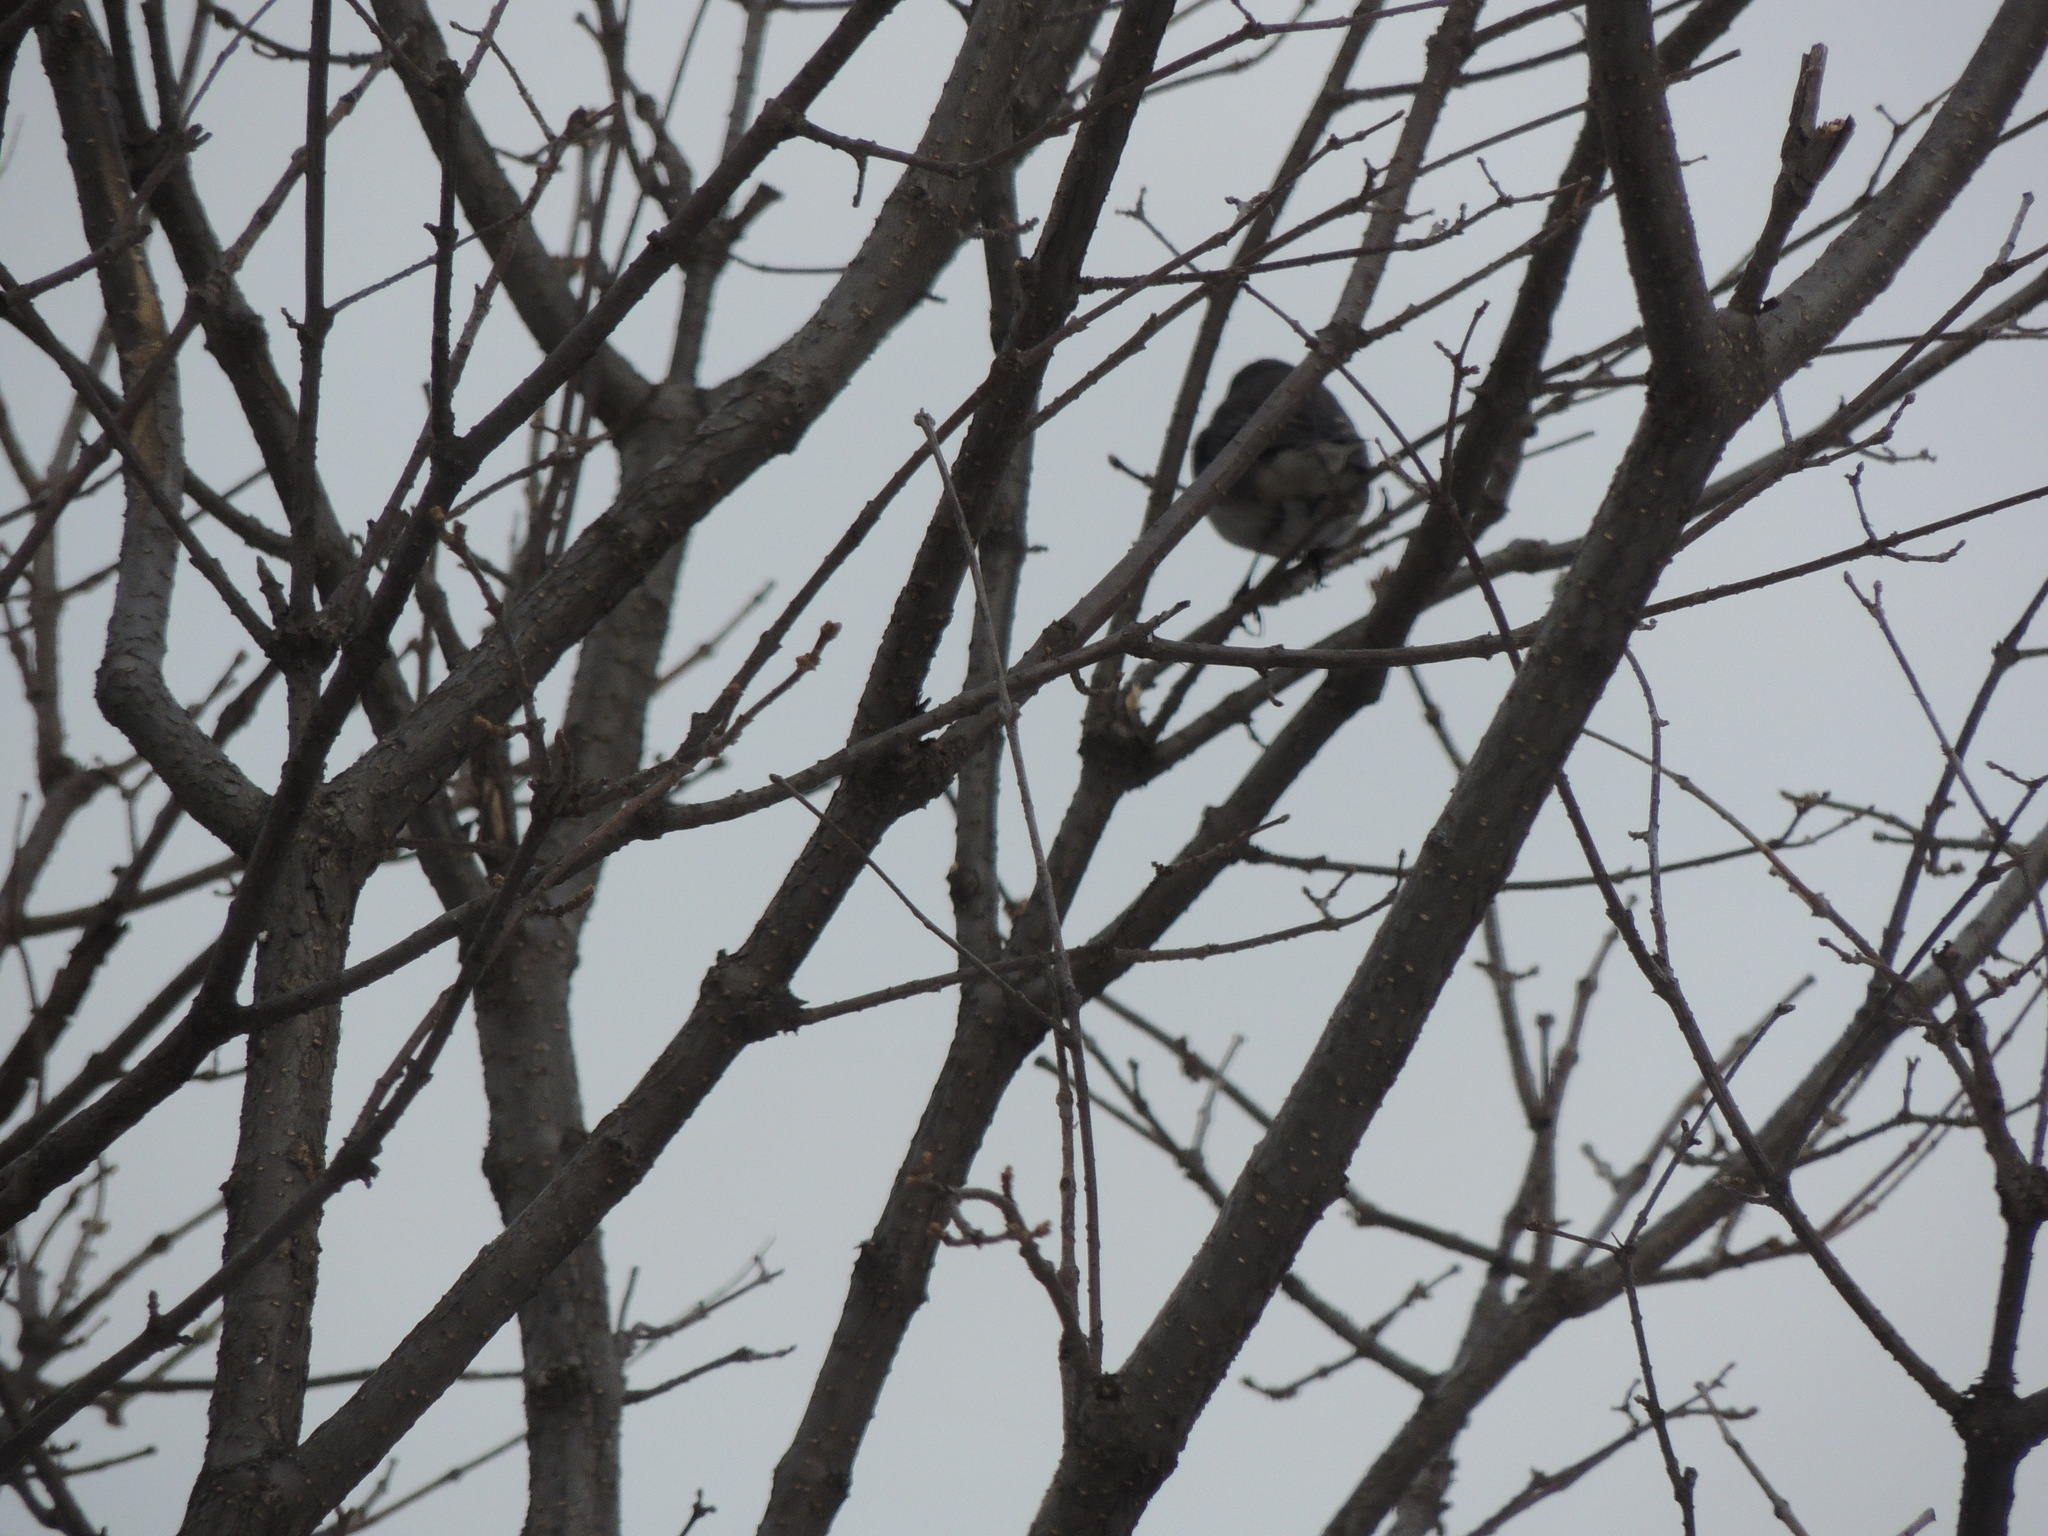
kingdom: Animalia
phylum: Chordata
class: Aves
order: Passeriformes
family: Passerellidae
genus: Junco
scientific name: Junco hyemalis
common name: Dark-eyed junco
